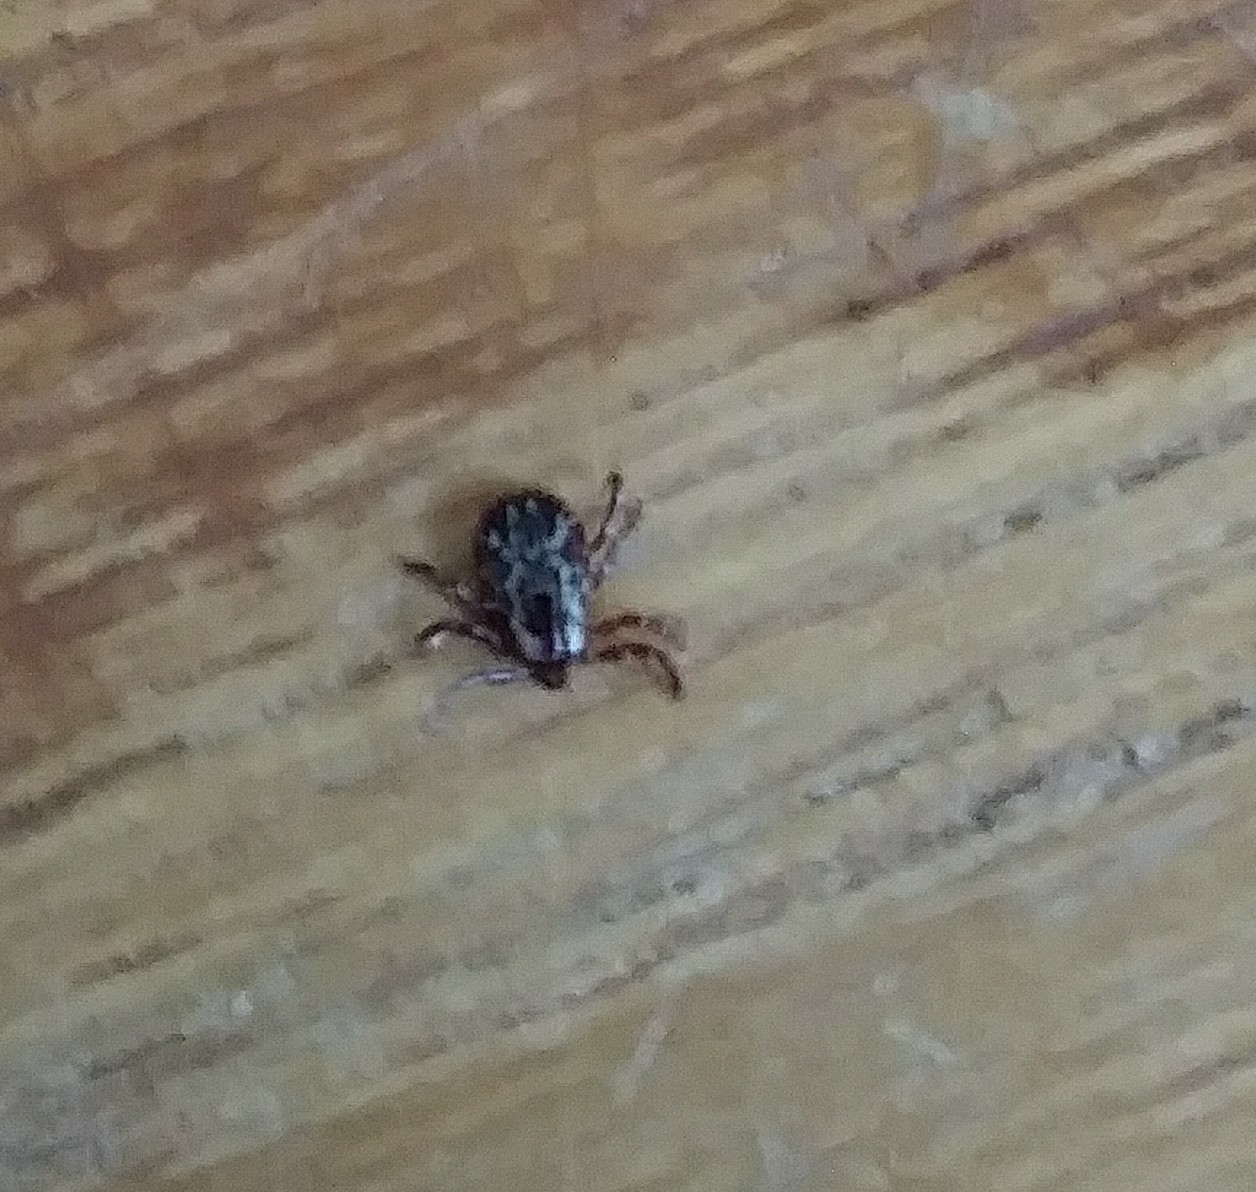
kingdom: Animalia
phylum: Arthropoda
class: Arachnida
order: Ixodida
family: Ixodidae
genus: Dermacentor
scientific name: Dermacentor variabilis
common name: American dog tick
